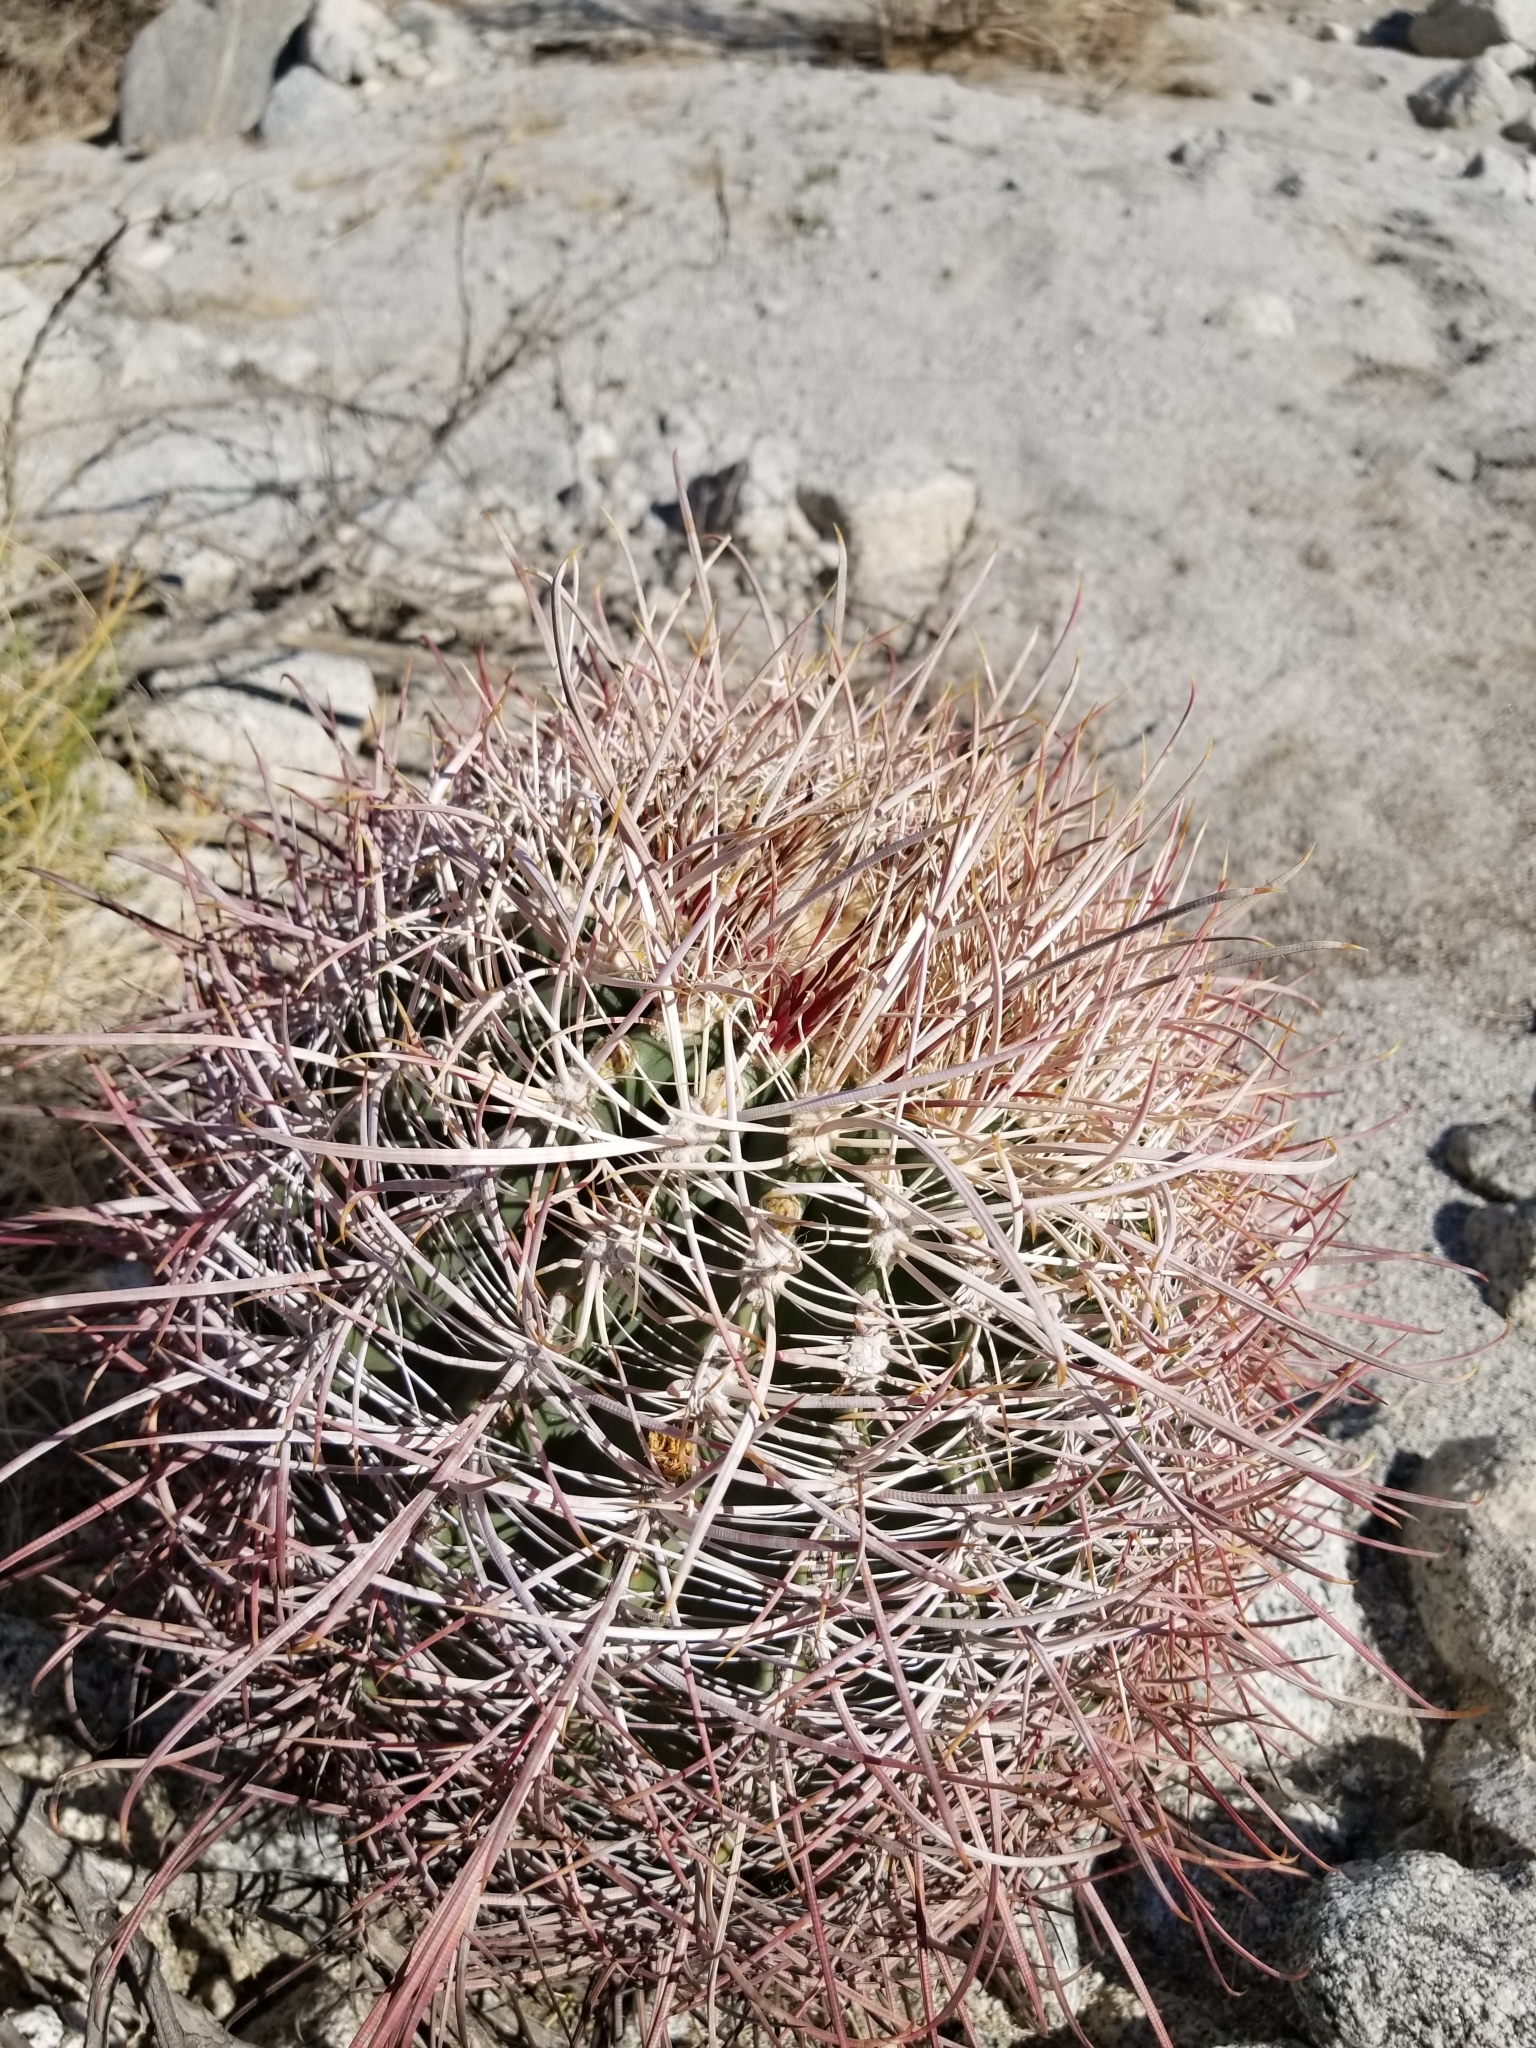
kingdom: Plantae
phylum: Tracheophyta
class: Magnoliopsida
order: Caryophyllales
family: Cactaceae
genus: Ferocactus
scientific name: Ferocactus cylindraceus
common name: California barrel cactus
